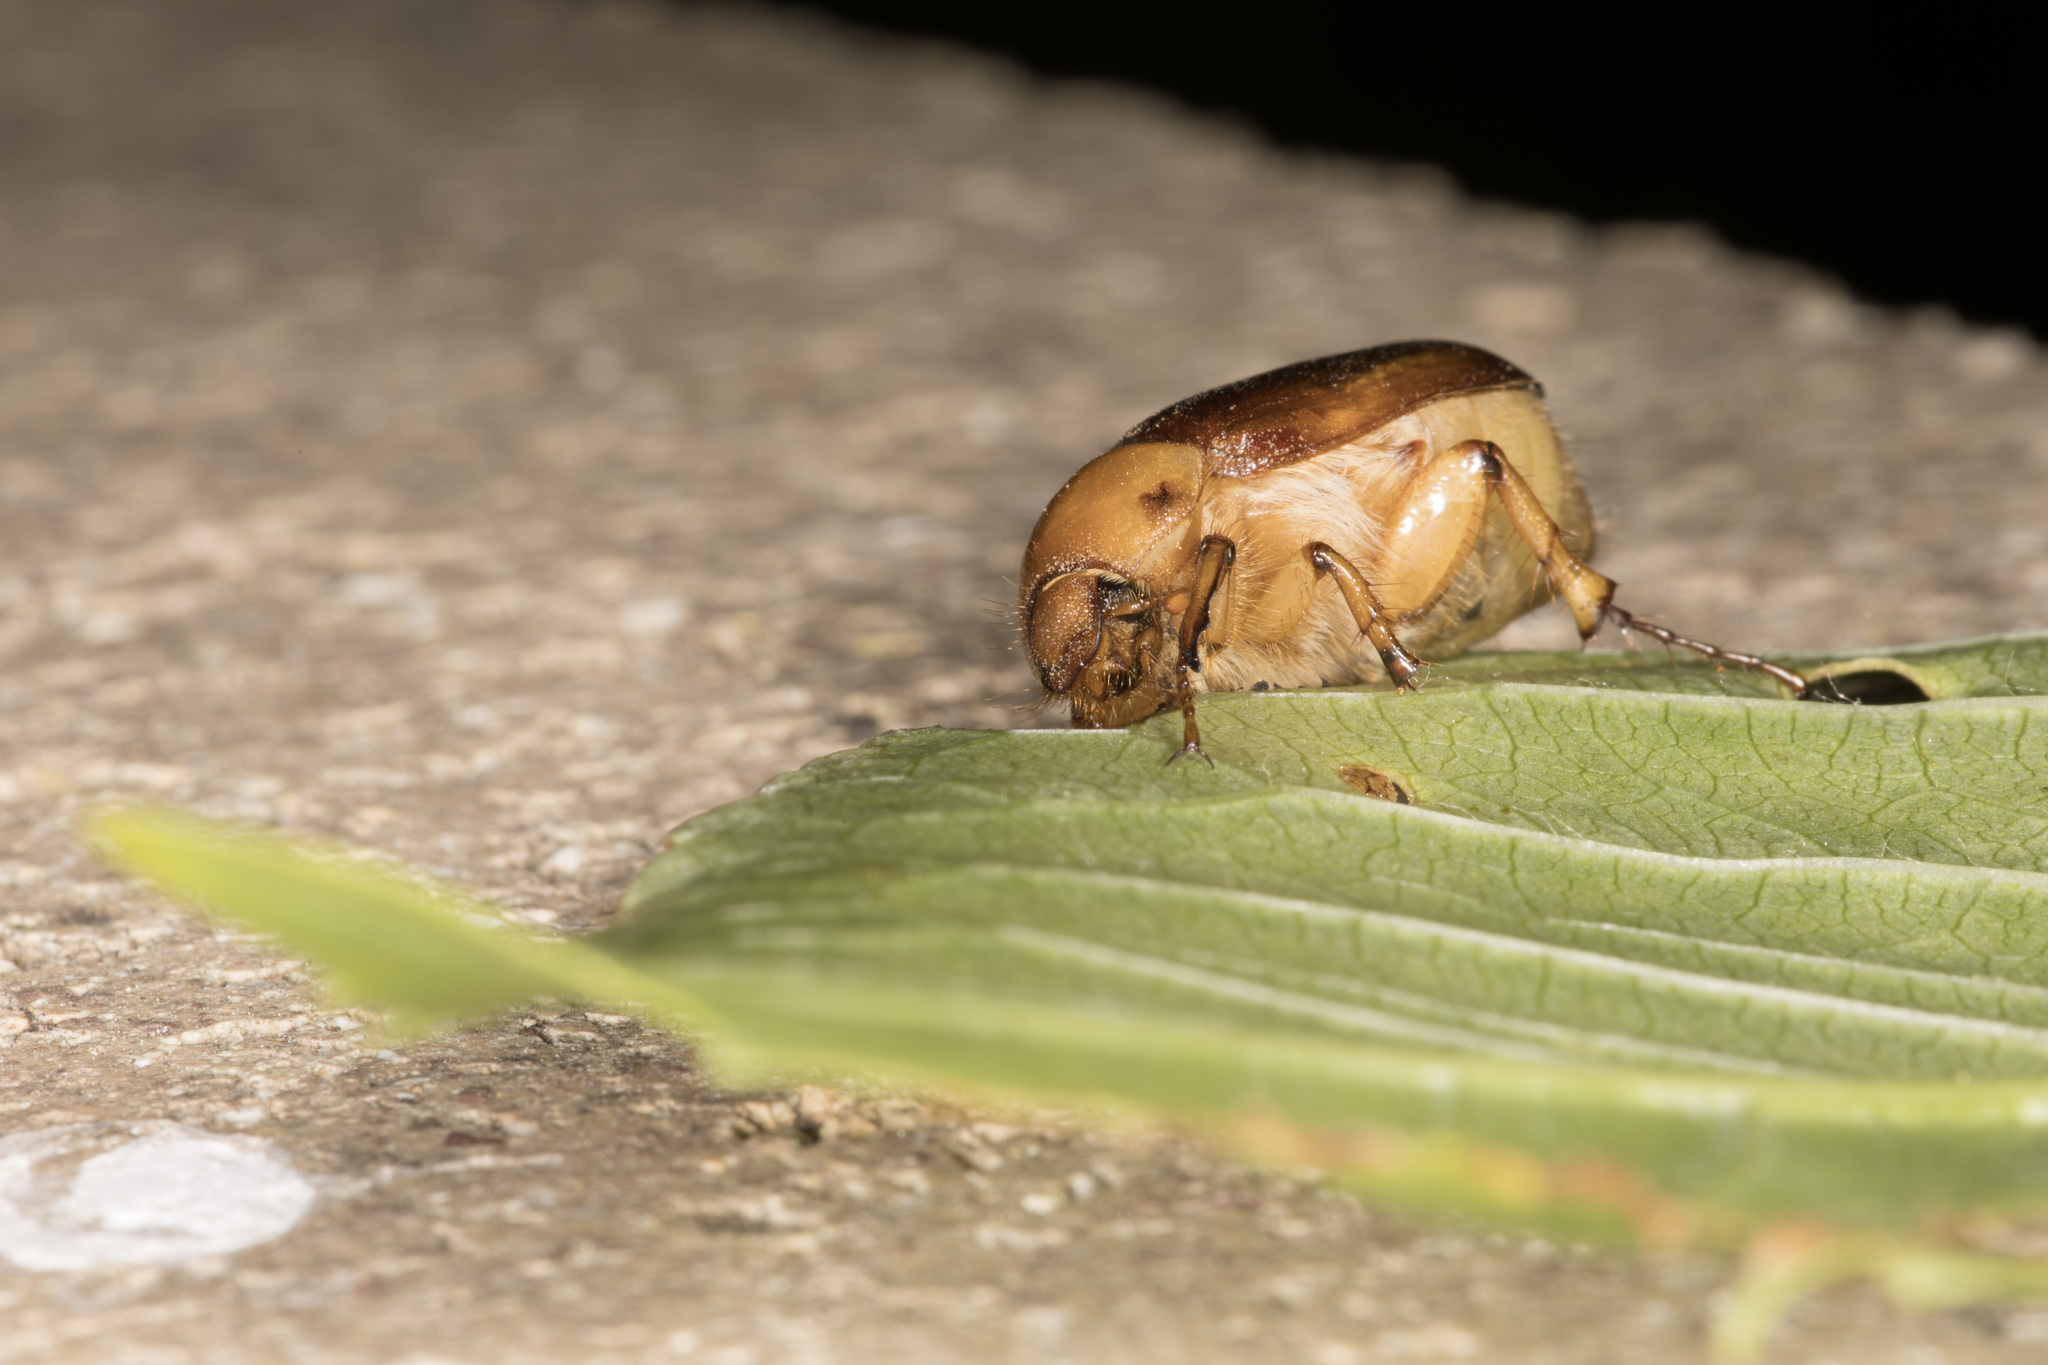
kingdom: Animalia
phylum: Arthropoda
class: Insecta
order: Coleoptera
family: Scarabaeidae
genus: Rhizotrogus
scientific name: Rhizotrogus aestivus
